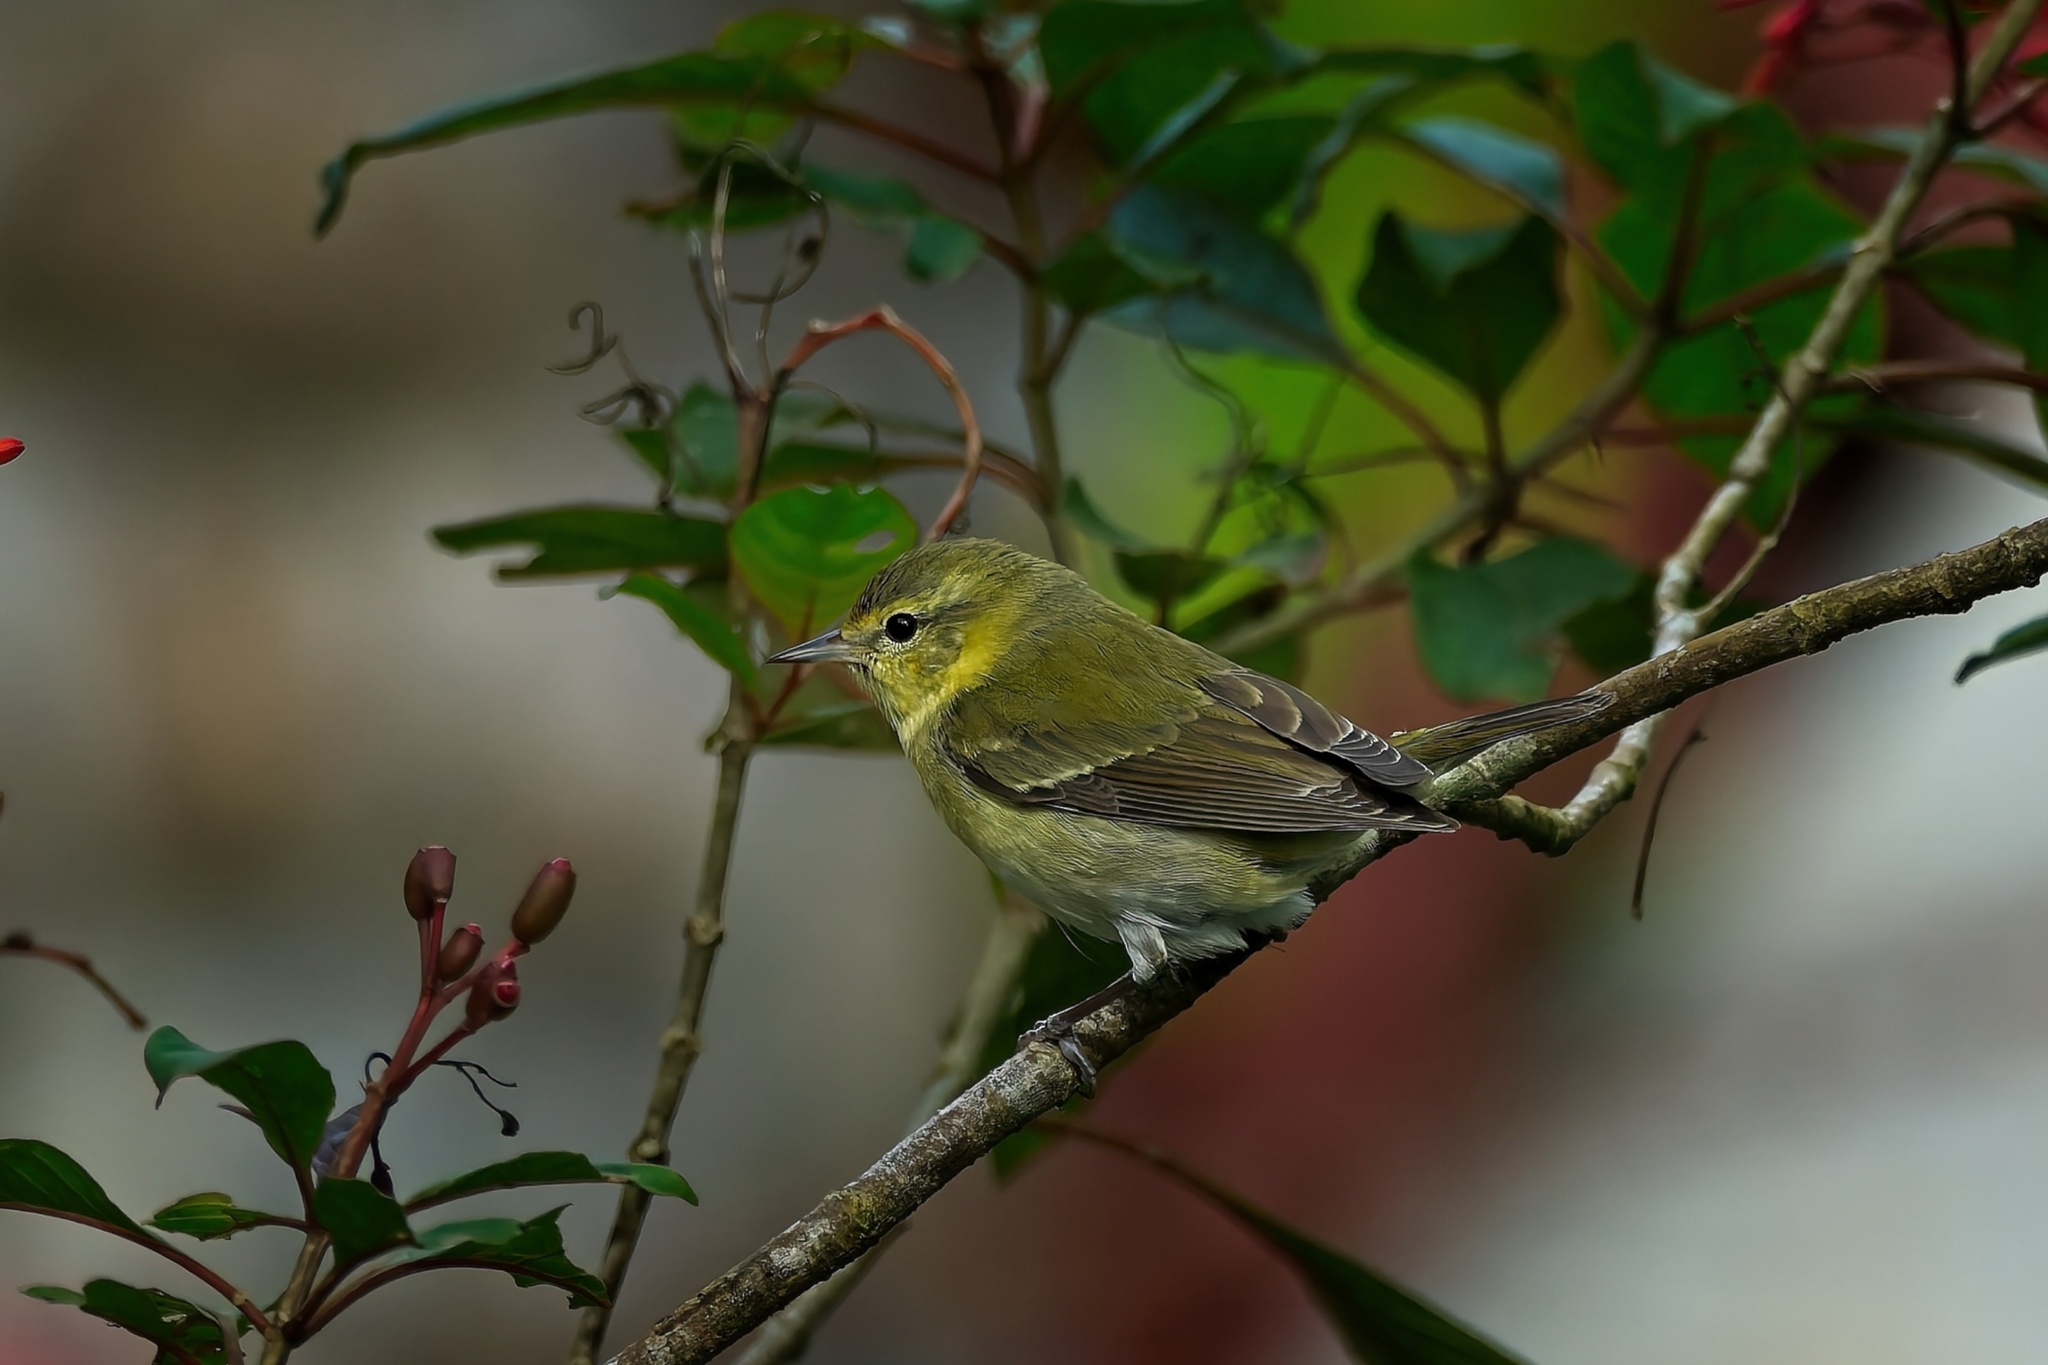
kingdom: Animalia
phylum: Chordata
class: Aves
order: Passeriformes
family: Parulidae
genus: Leiothlypis
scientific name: Leiothlypis peregrina
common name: Tennessee warbler
